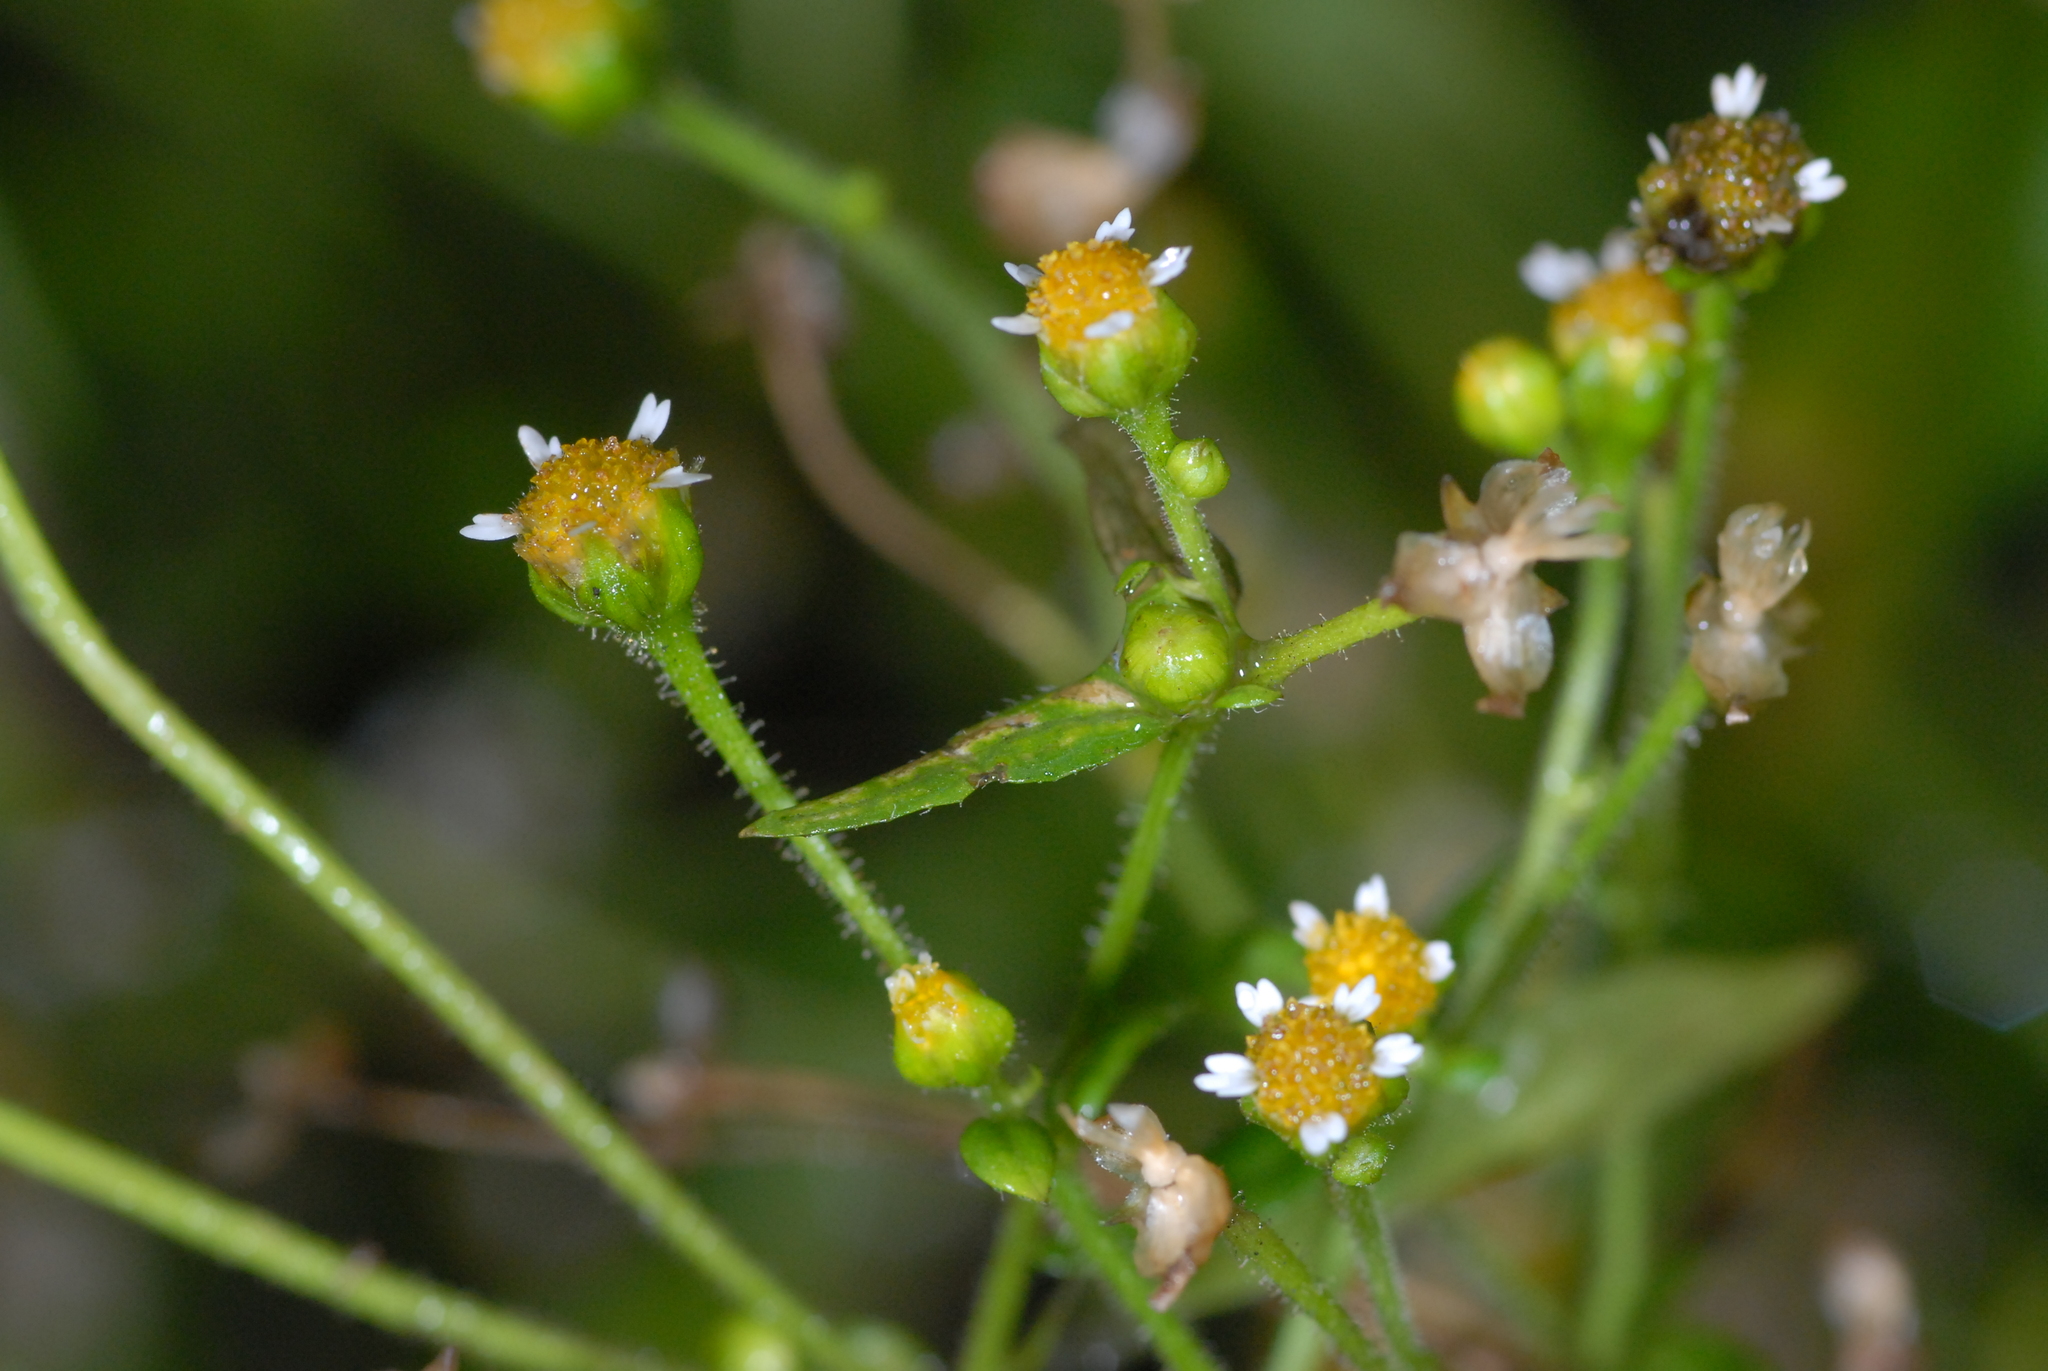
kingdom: Plantae
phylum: Tracheophyta
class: Magnoliopsida
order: Asterales
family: Asteraceae
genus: Galinsoga
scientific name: Galinsoga quadriradiata
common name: Shaggy soldier
